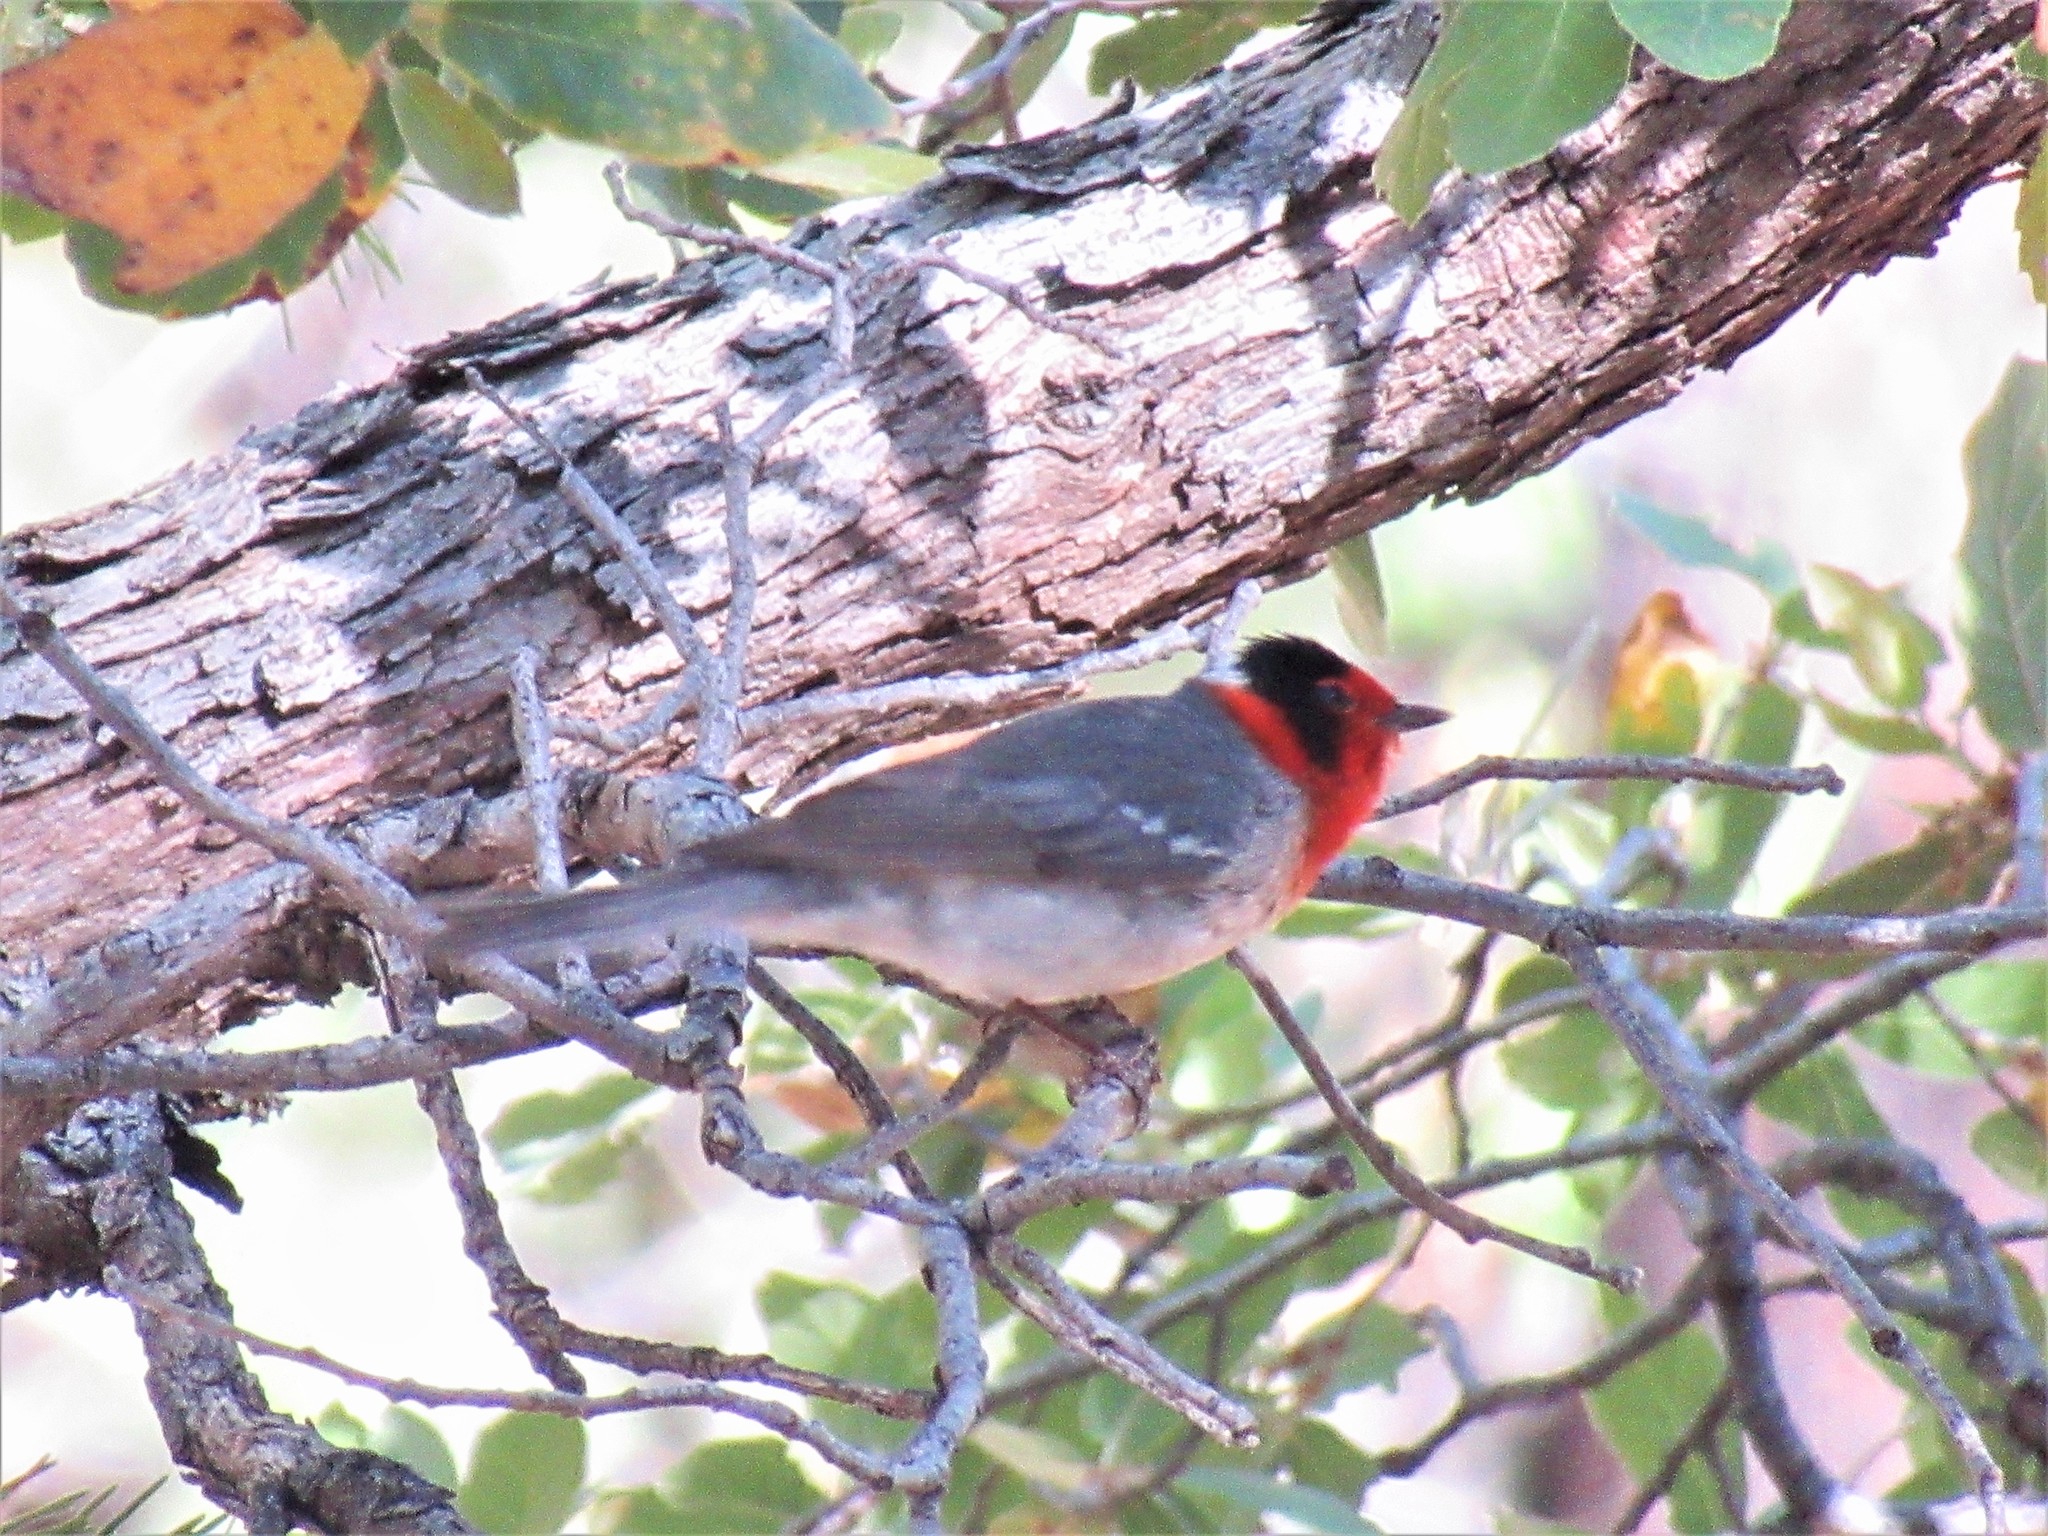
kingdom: Animalia
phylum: Chordata
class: Aves
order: Passeriformes
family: Parulidae
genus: Cardellina
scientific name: Cardellina rubrifrons
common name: Red-faced warbler
